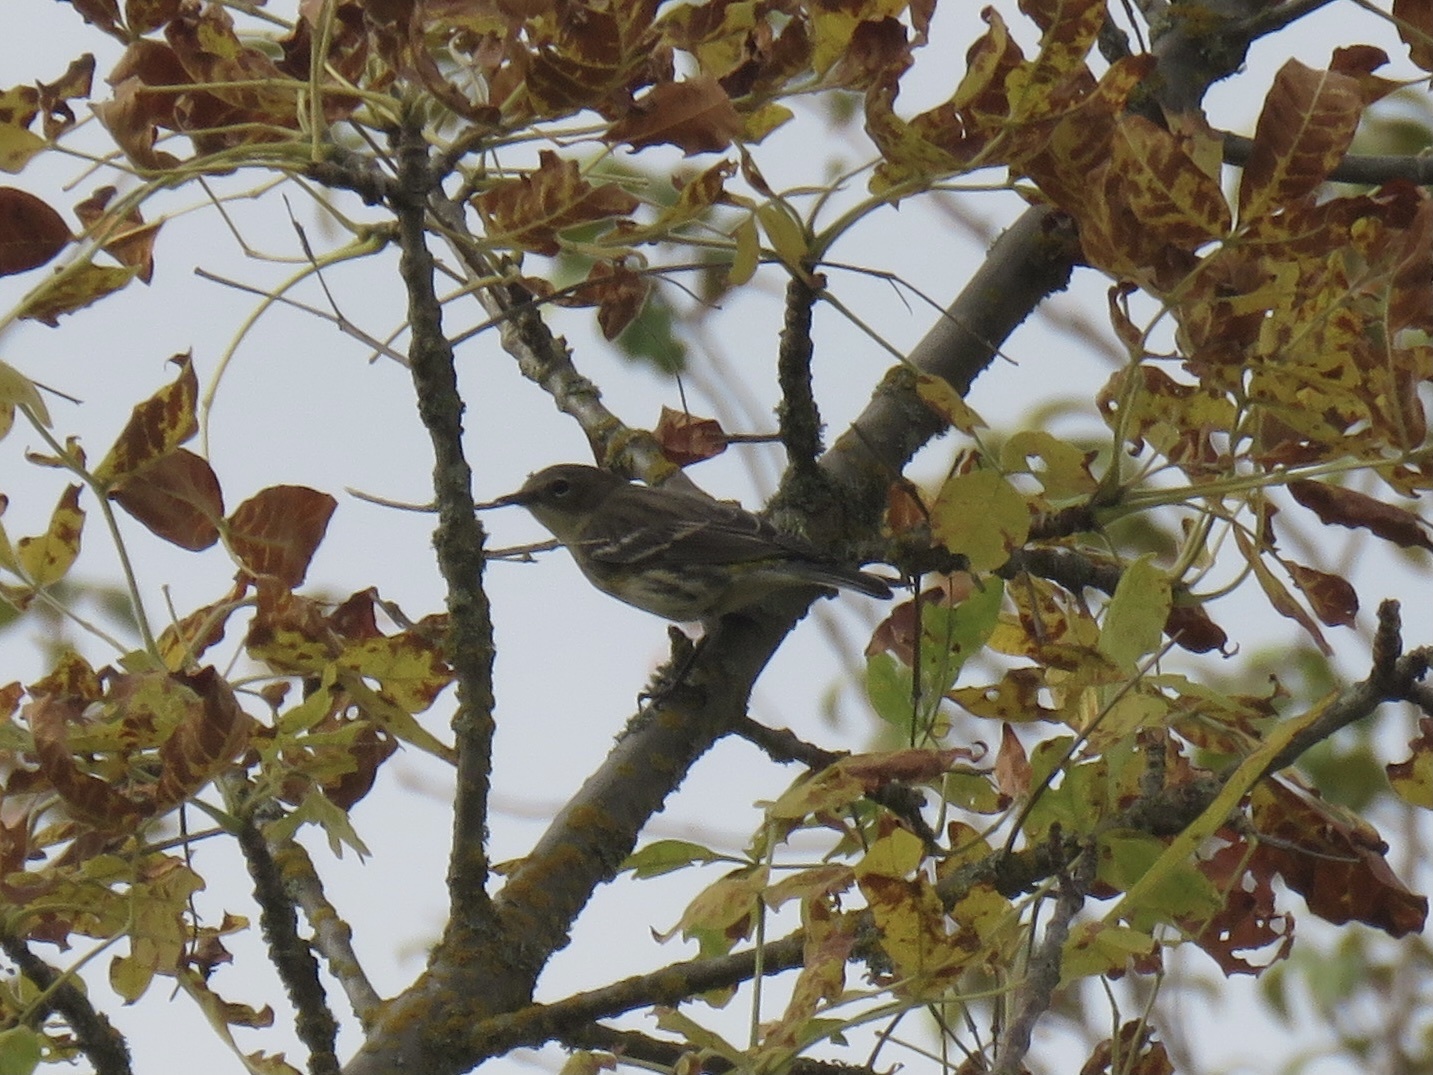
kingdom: Animalia
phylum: Chordata
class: Aves
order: Passeriformes
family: Parulidae
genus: Setophaga
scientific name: Setophaga coronata
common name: Myrtle warbler
